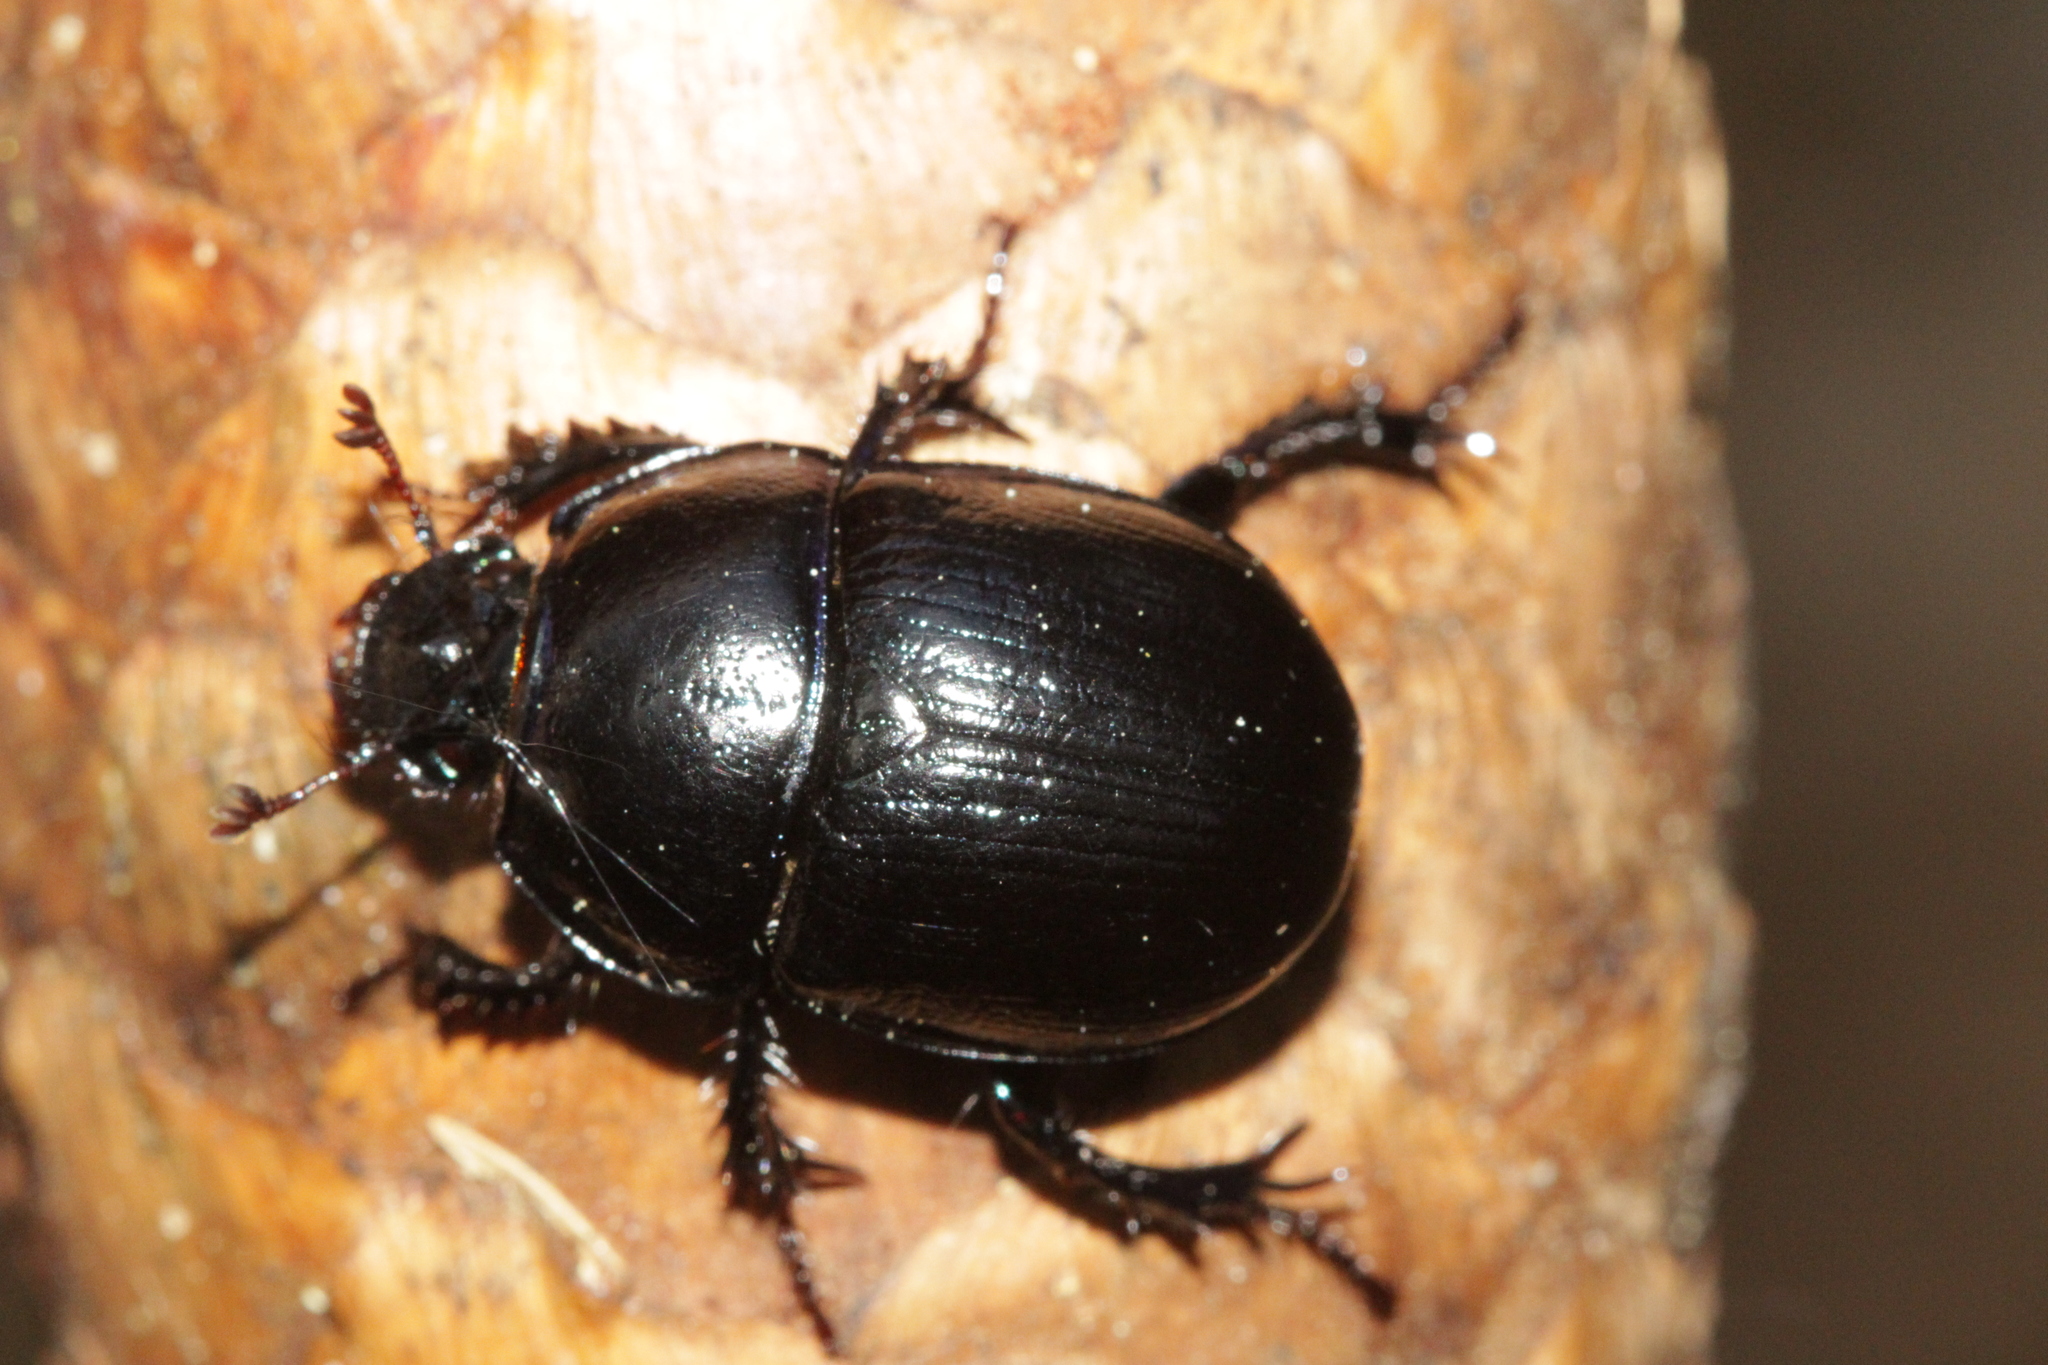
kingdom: Animalia
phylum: Arthropoda
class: Insecta
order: Coleoptera
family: Geotrupidae
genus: Anoplotrupes
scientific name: Anoplotrupes stercorosus
